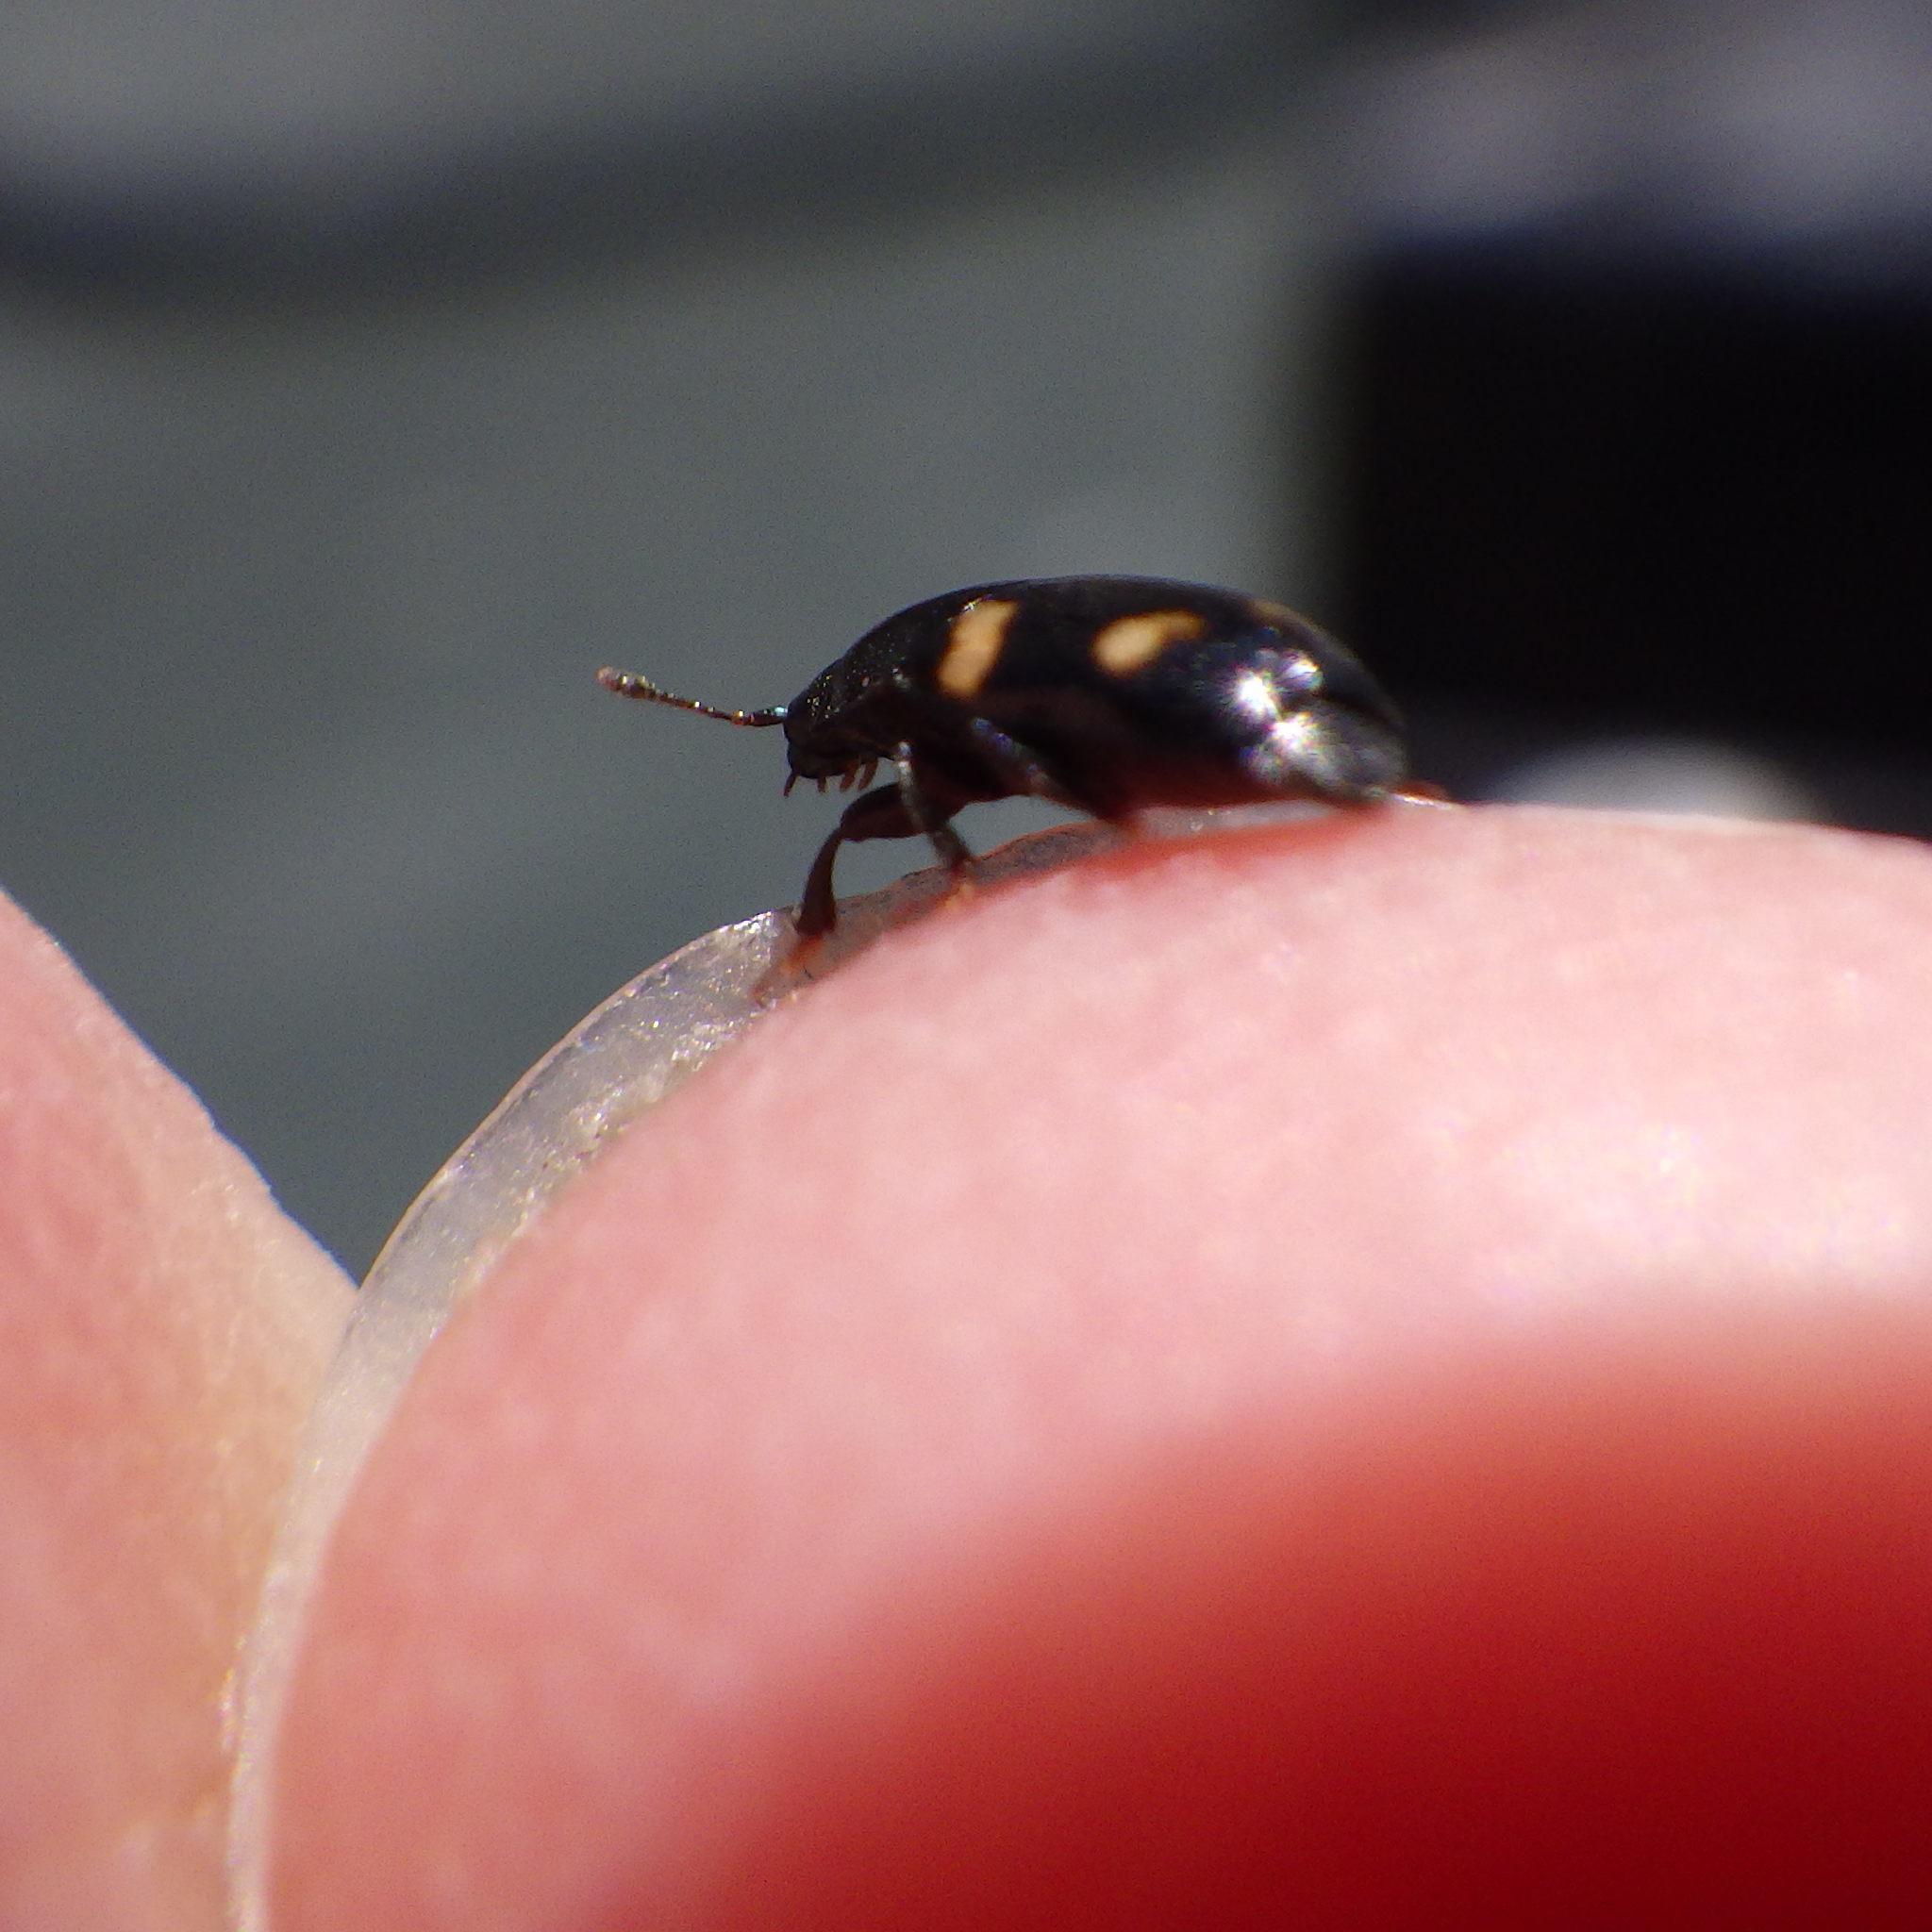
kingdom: Animalia
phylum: Arthropoda
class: Insecta
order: Coleoptera
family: Nitidulidae
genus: Glischrochilus
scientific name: Glischrochilus quadrisignatus
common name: Picnic beetle
